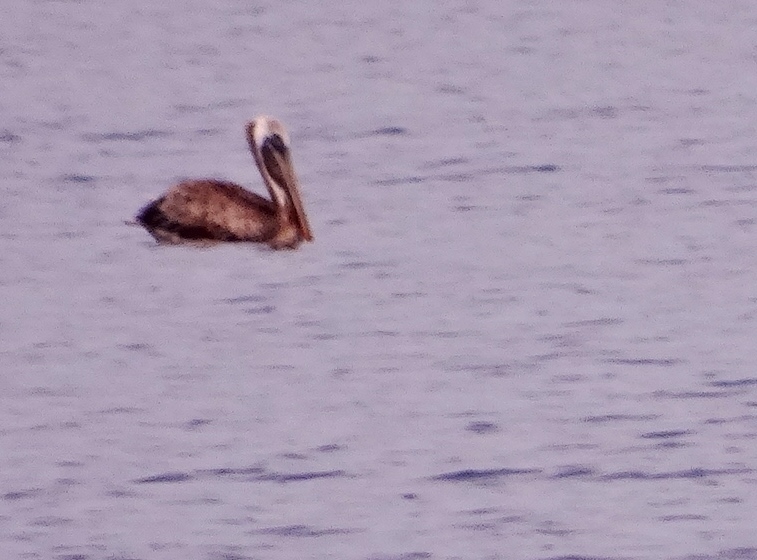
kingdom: Animalia
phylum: Chordata
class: Aves
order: Pelecaniformes
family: Pelecanidae
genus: Pelecanus
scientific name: Pelecanus occidentalis
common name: Brown pelican
